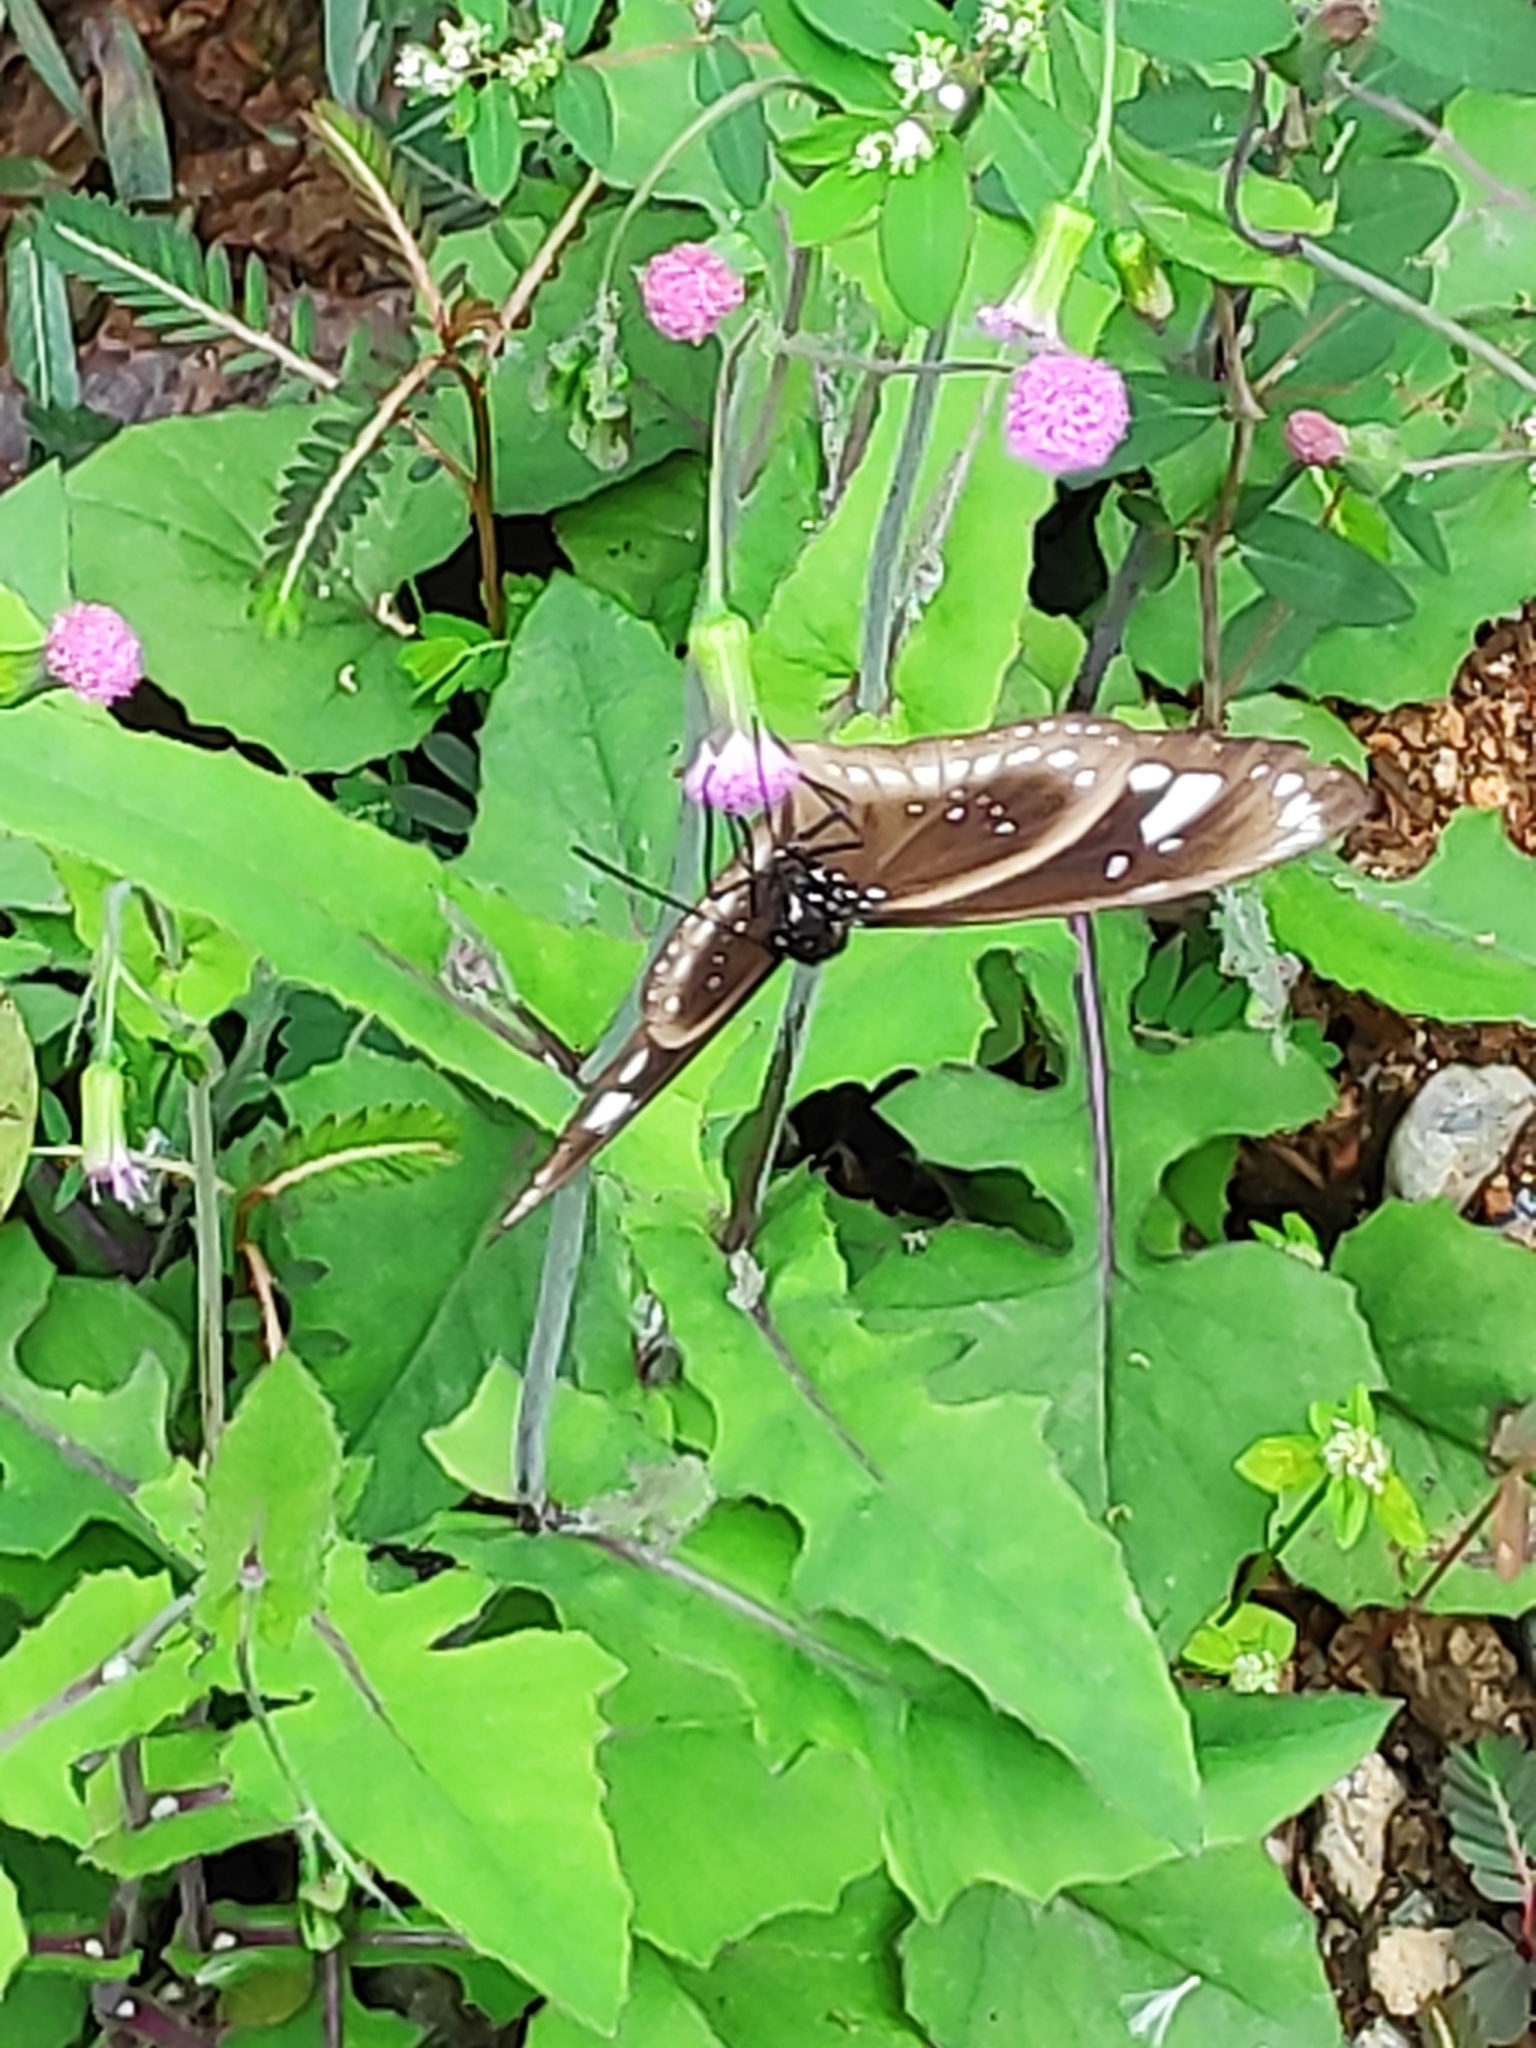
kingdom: Animalia
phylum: Arthropoda
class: Insecta
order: Lepidoptera
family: Nymphalidae
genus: Euploea
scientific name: Euploea lewinii
